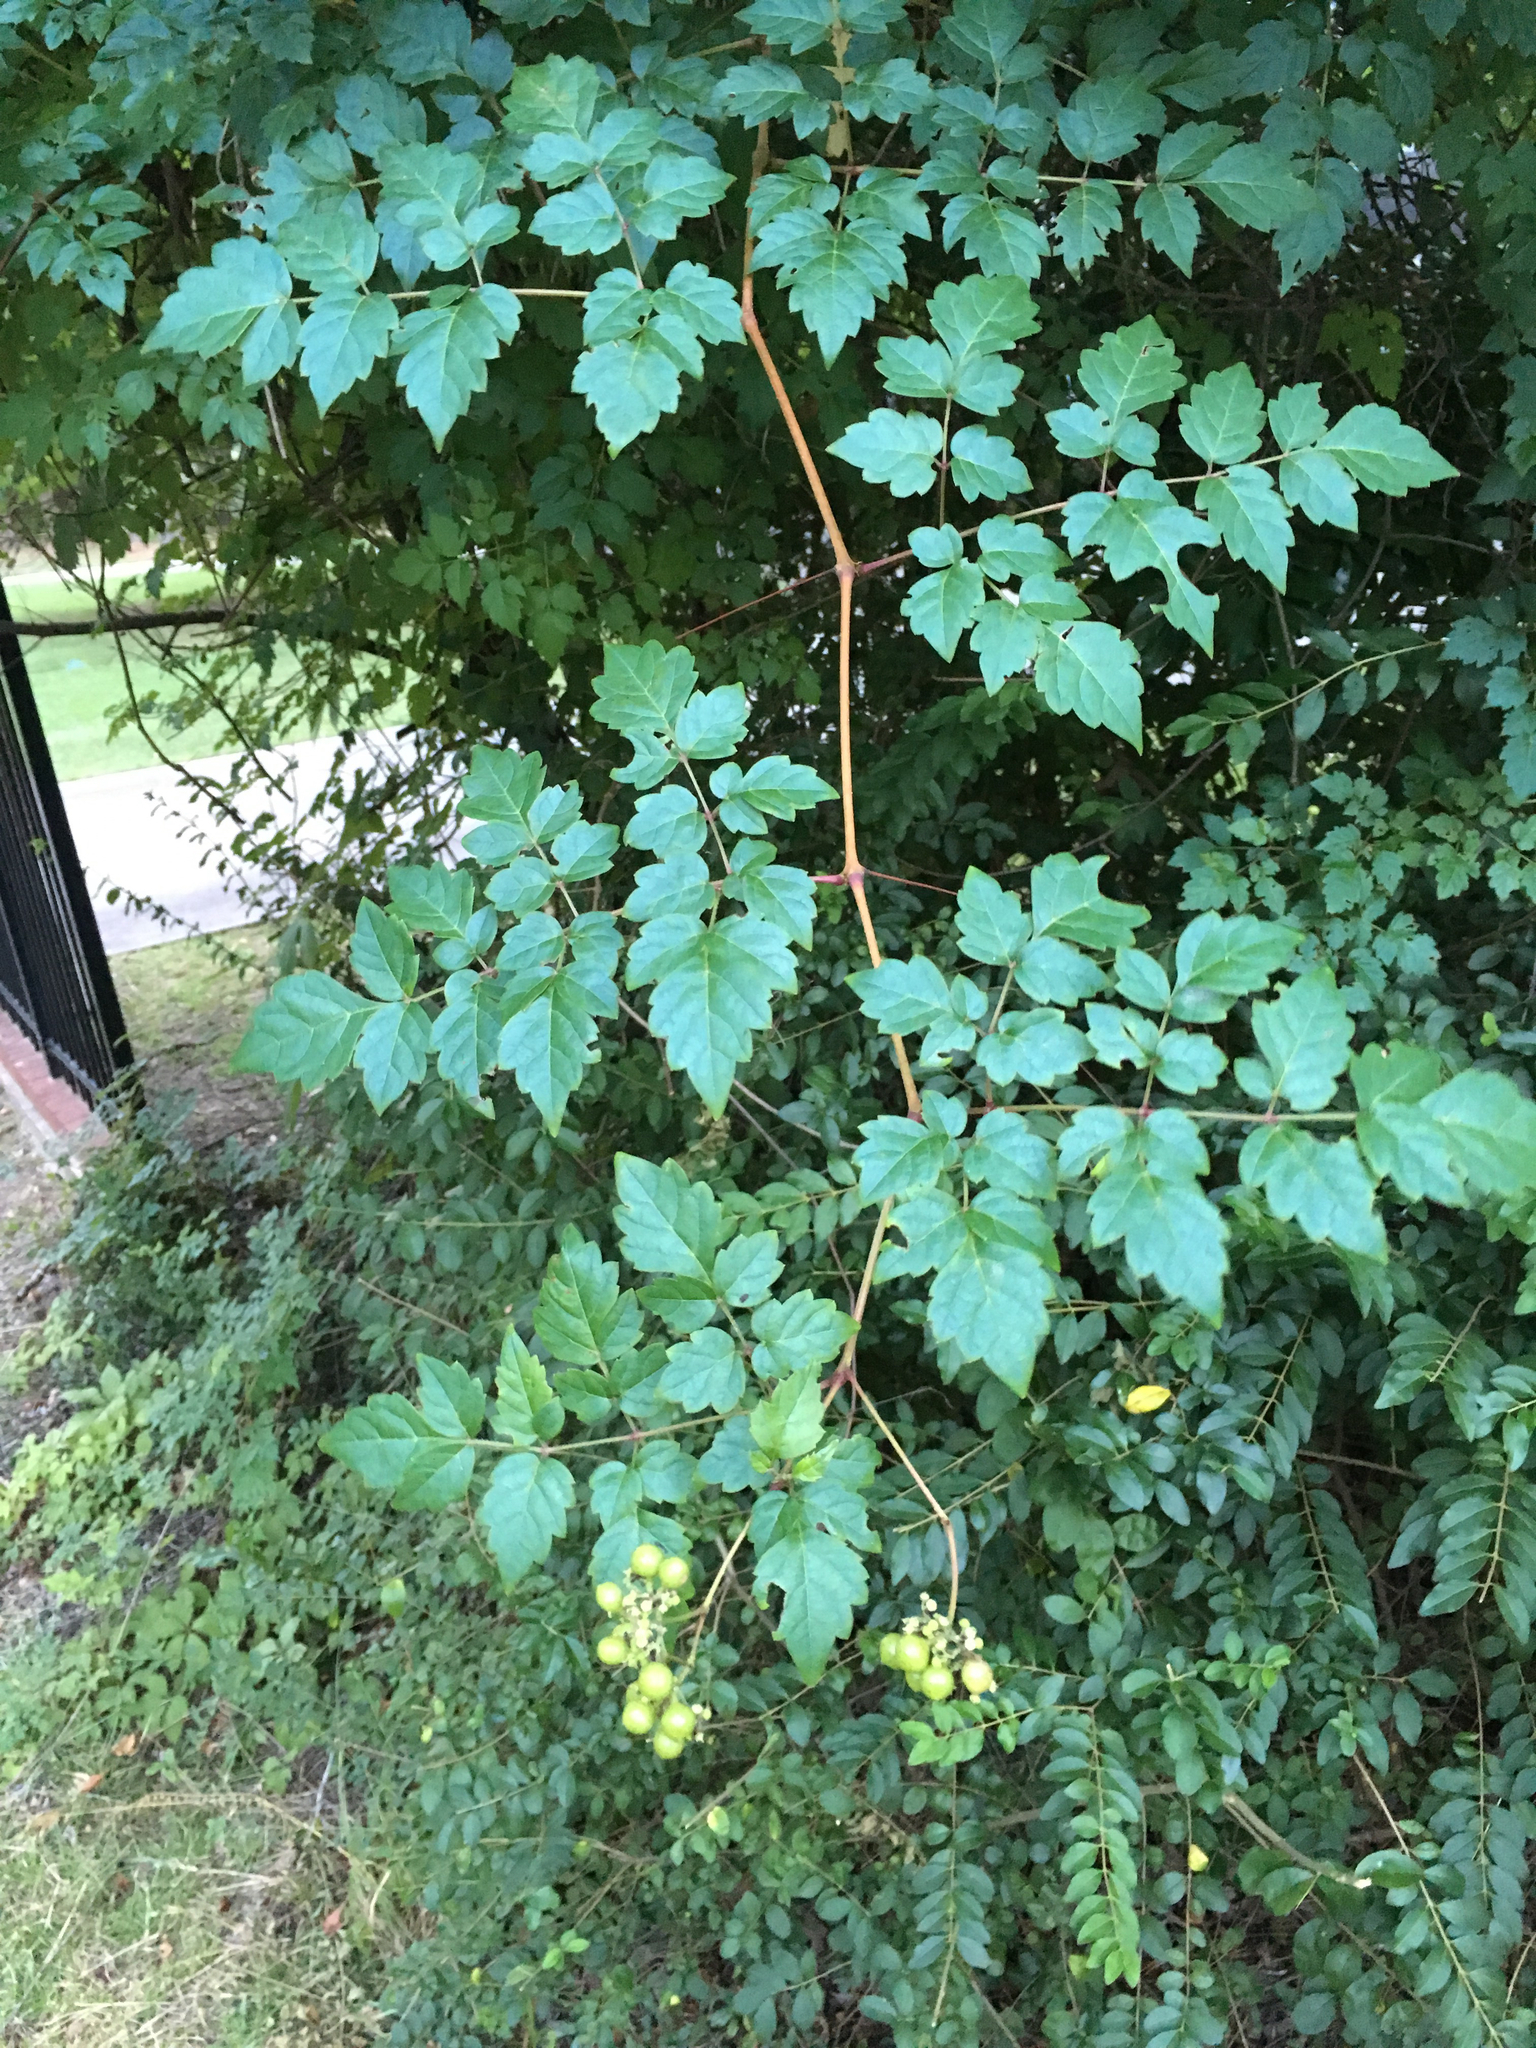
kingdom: Plantae
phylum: Tracheophyta
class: Magnoliopsida
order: Vitales
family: Vitaceae
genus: Nekemias
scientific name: Nekemias arborea
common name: Peppervine
